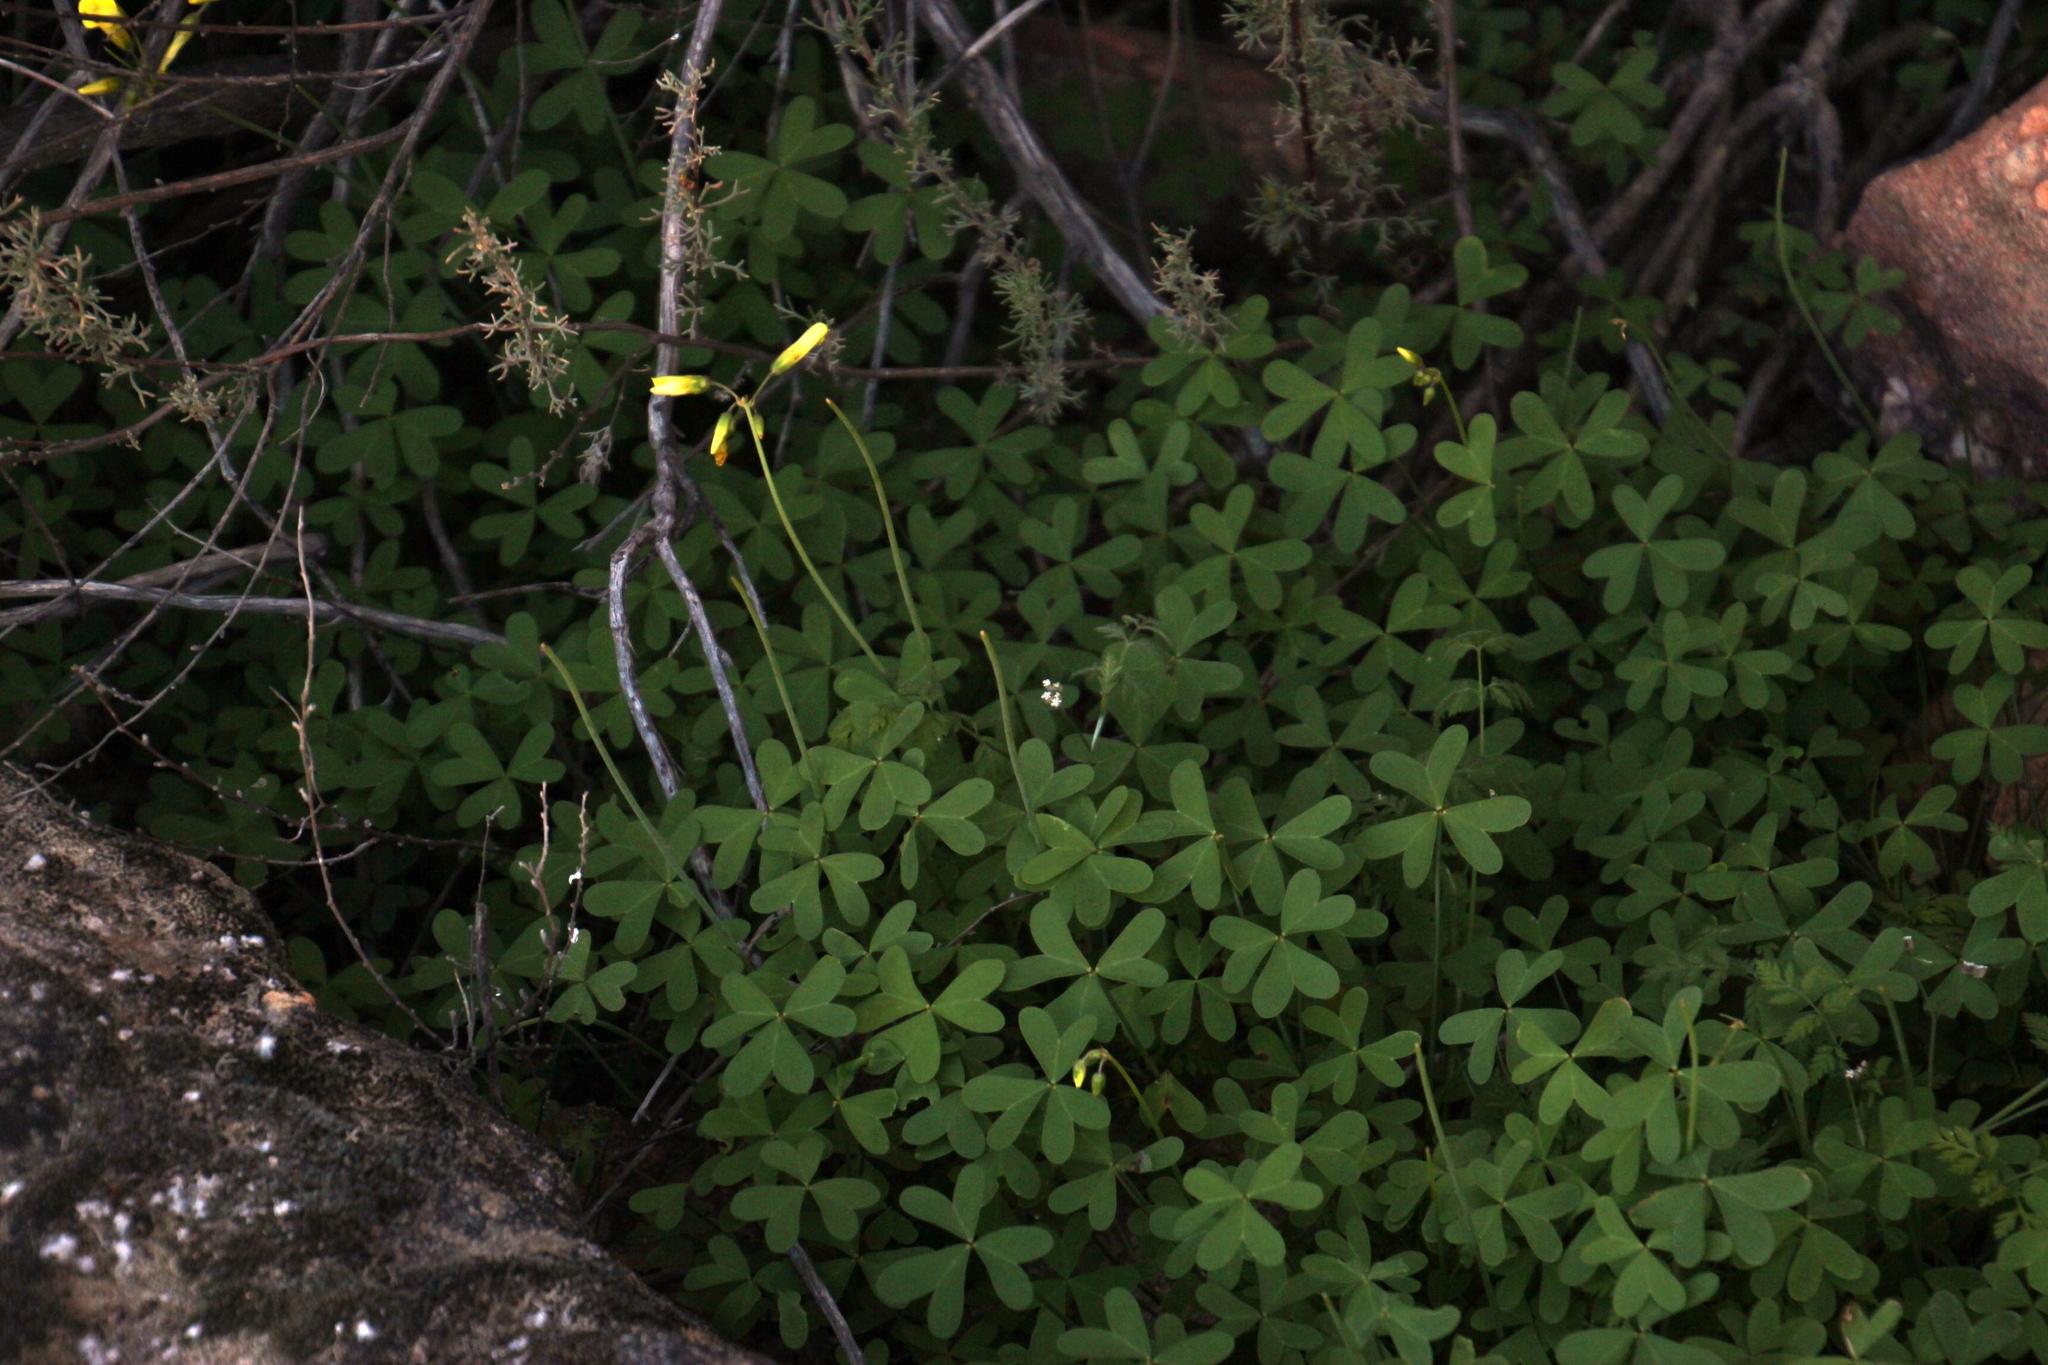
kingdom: Plantae
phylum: Tracheophyta
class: Magnoliopsida
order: Oxalidales
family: Oxalidaceae
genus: Oxalis
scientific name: Oxalis pes-caprae
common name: Bermuda-buttercup
